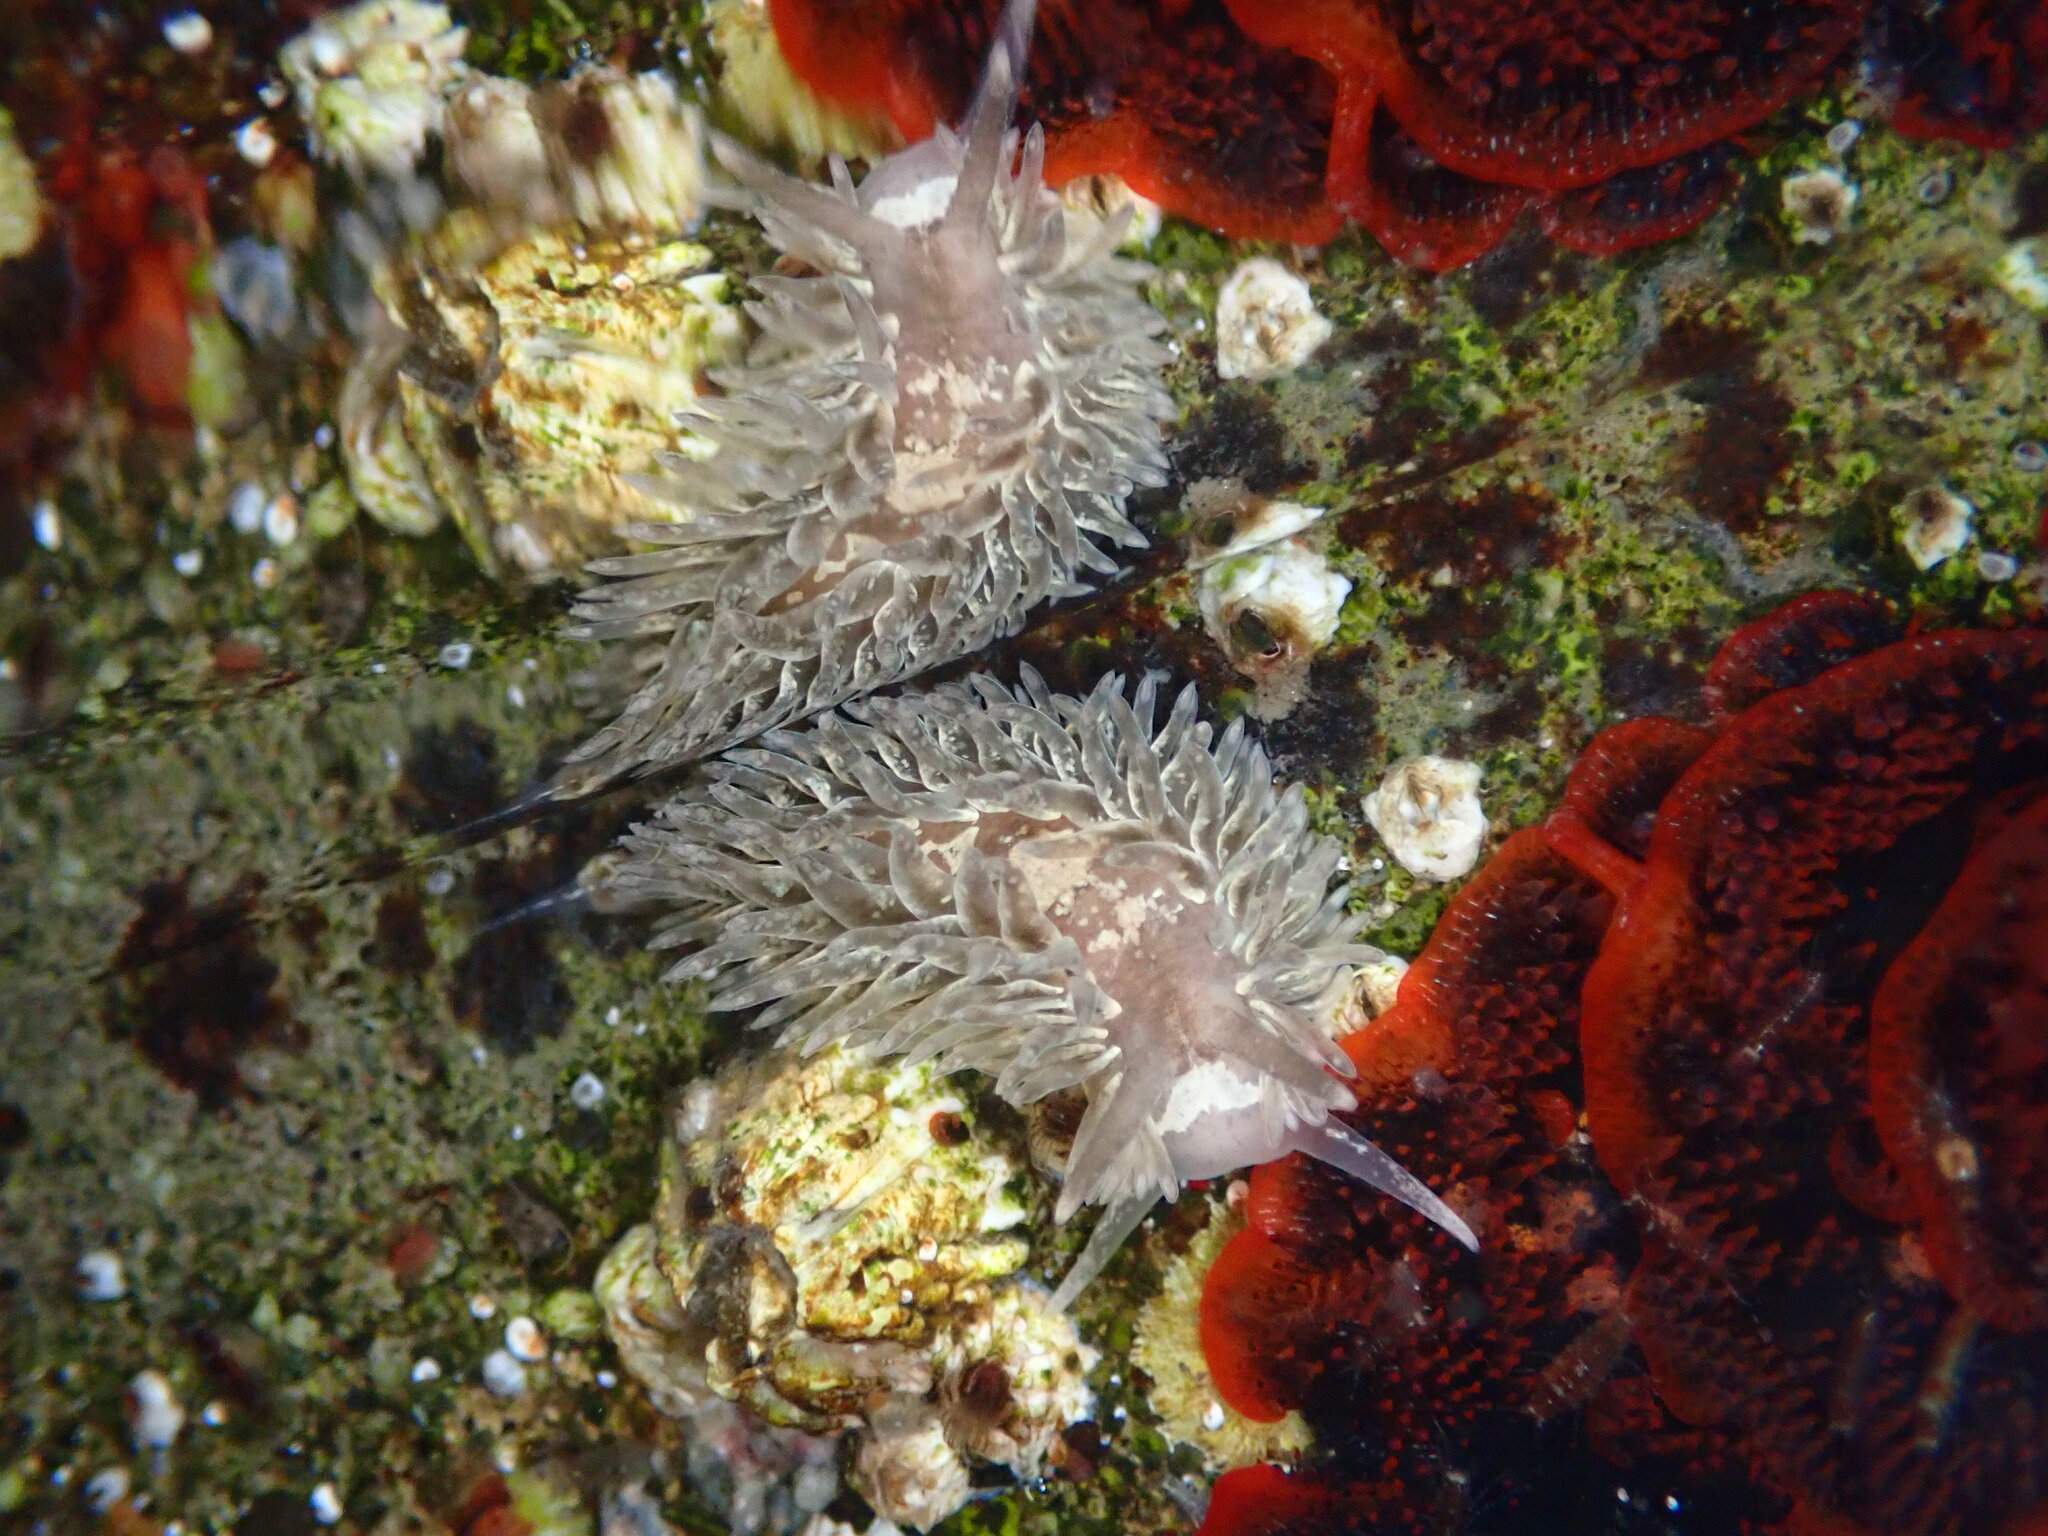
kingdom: Animalia
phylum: Mollusca
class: Gastropoda
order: Nudibranchia
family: Aeolidiidae
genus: Aeolidia
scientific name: Aeolidia loui
